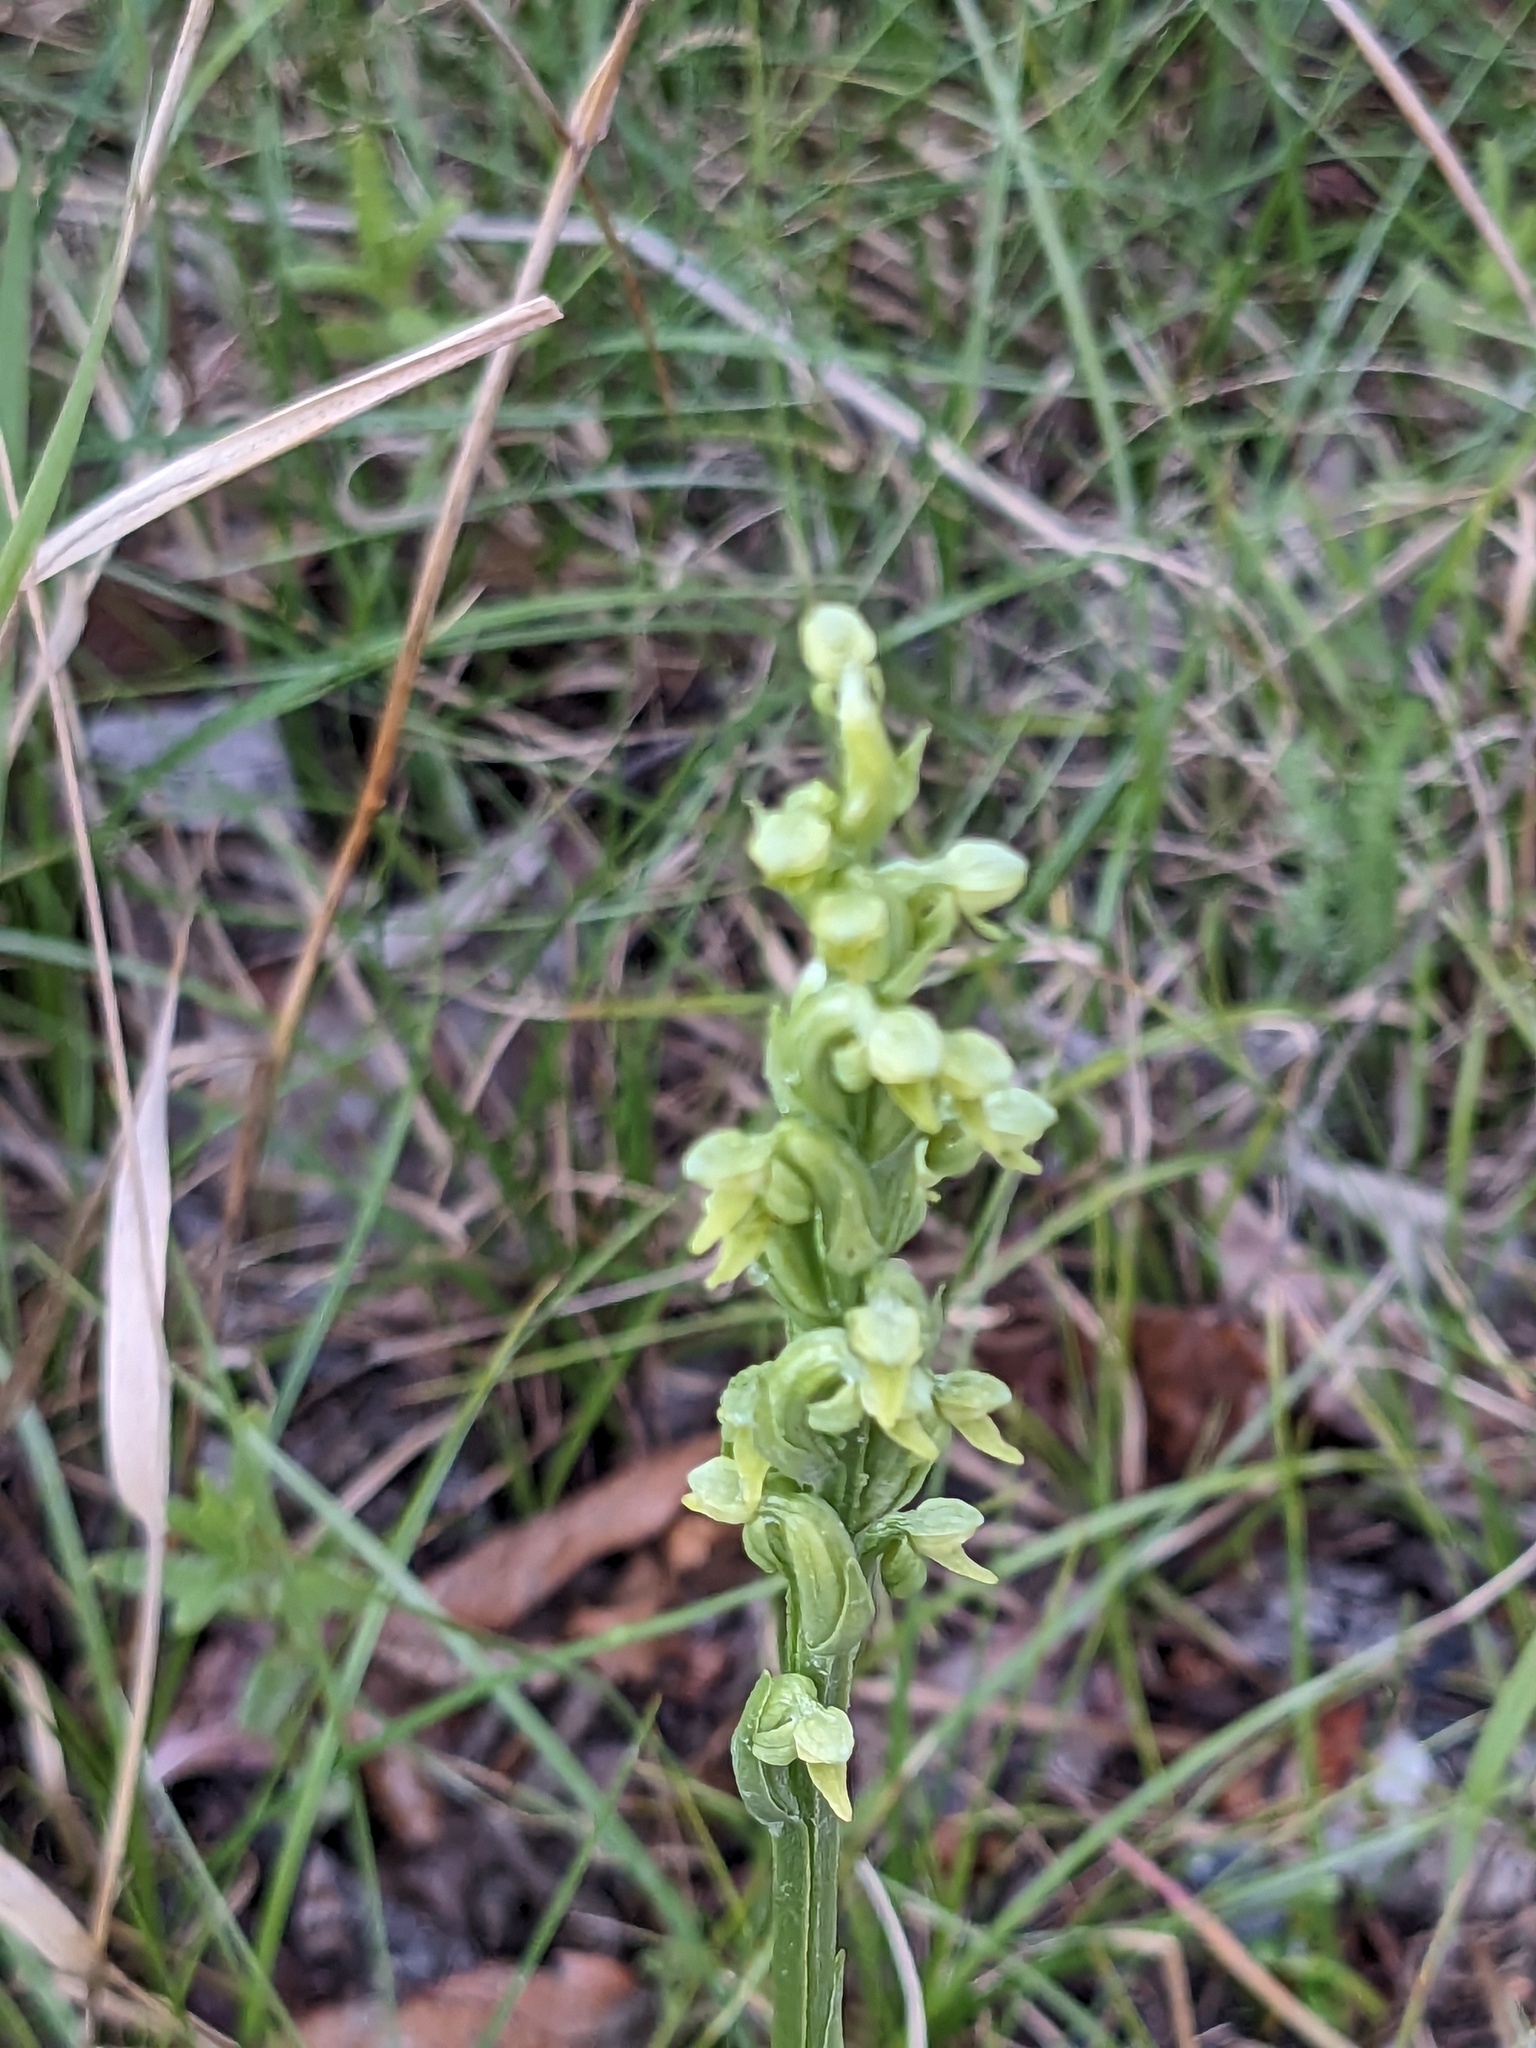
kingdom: Plantae
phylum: Tracheophyta
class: Liliopsida
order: Asparagales
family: Orchidaceae
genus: Platanthera
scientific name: Platanthera aquilonis
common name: Northern green orchid
